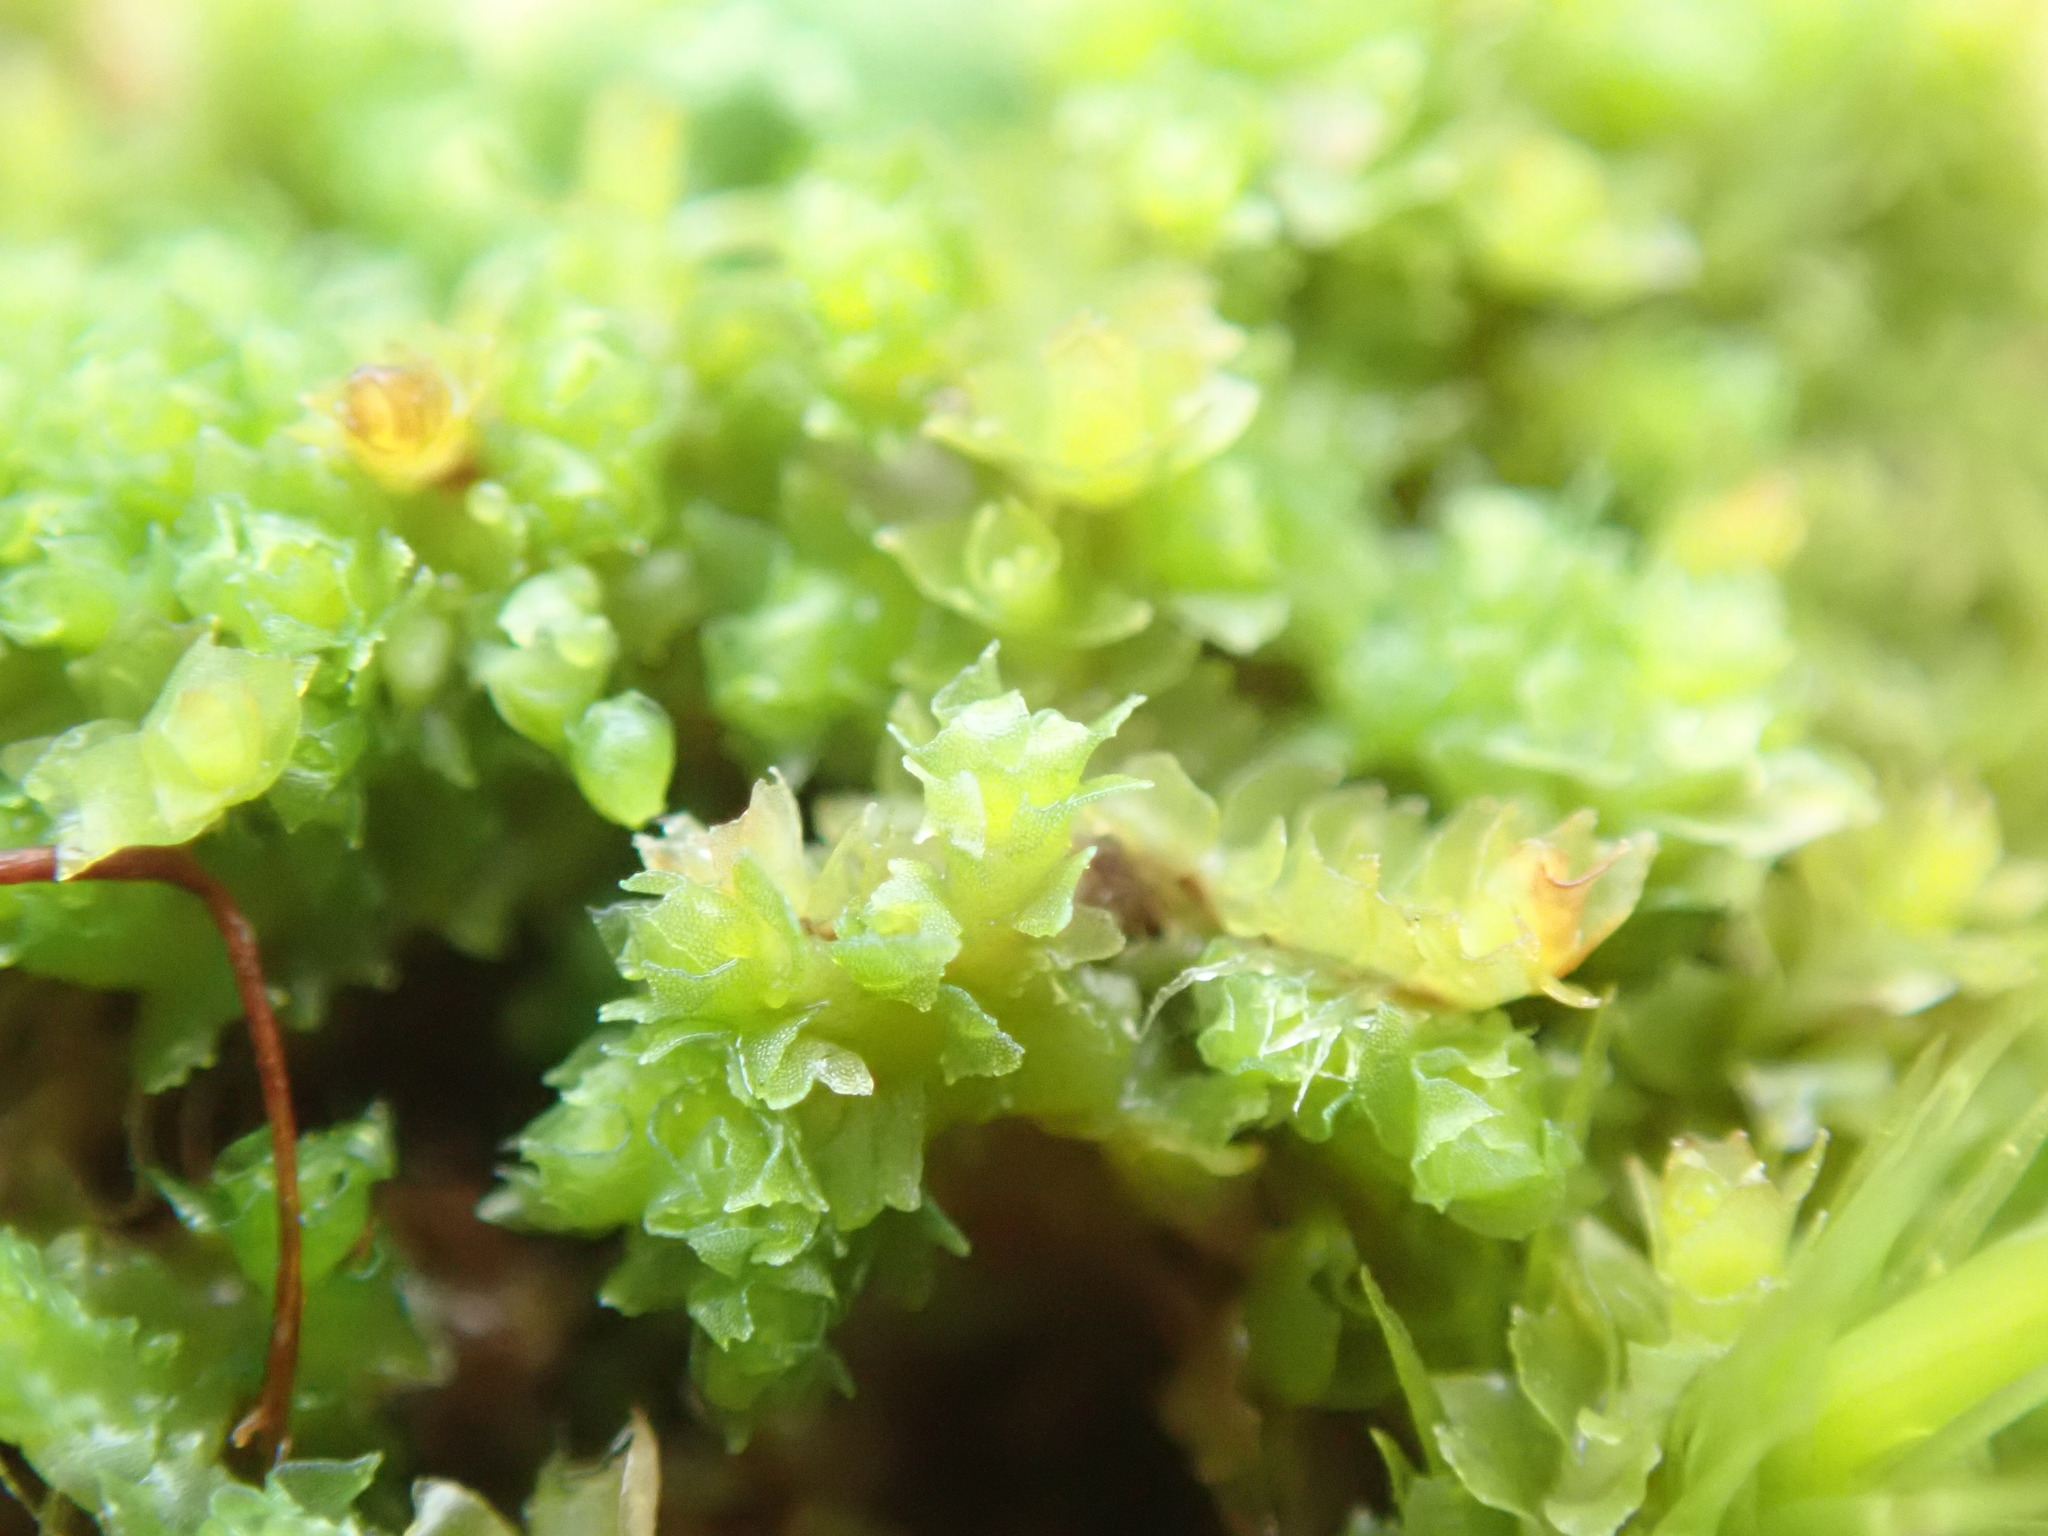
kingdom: Plantae
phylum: Marchantiophyta
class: Jungermanniopsida
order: Jungermanniales
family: Scapaniaceae
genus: Schistochilopsis
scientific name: Schistochilopsis incisa
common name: Jagged notchwort
